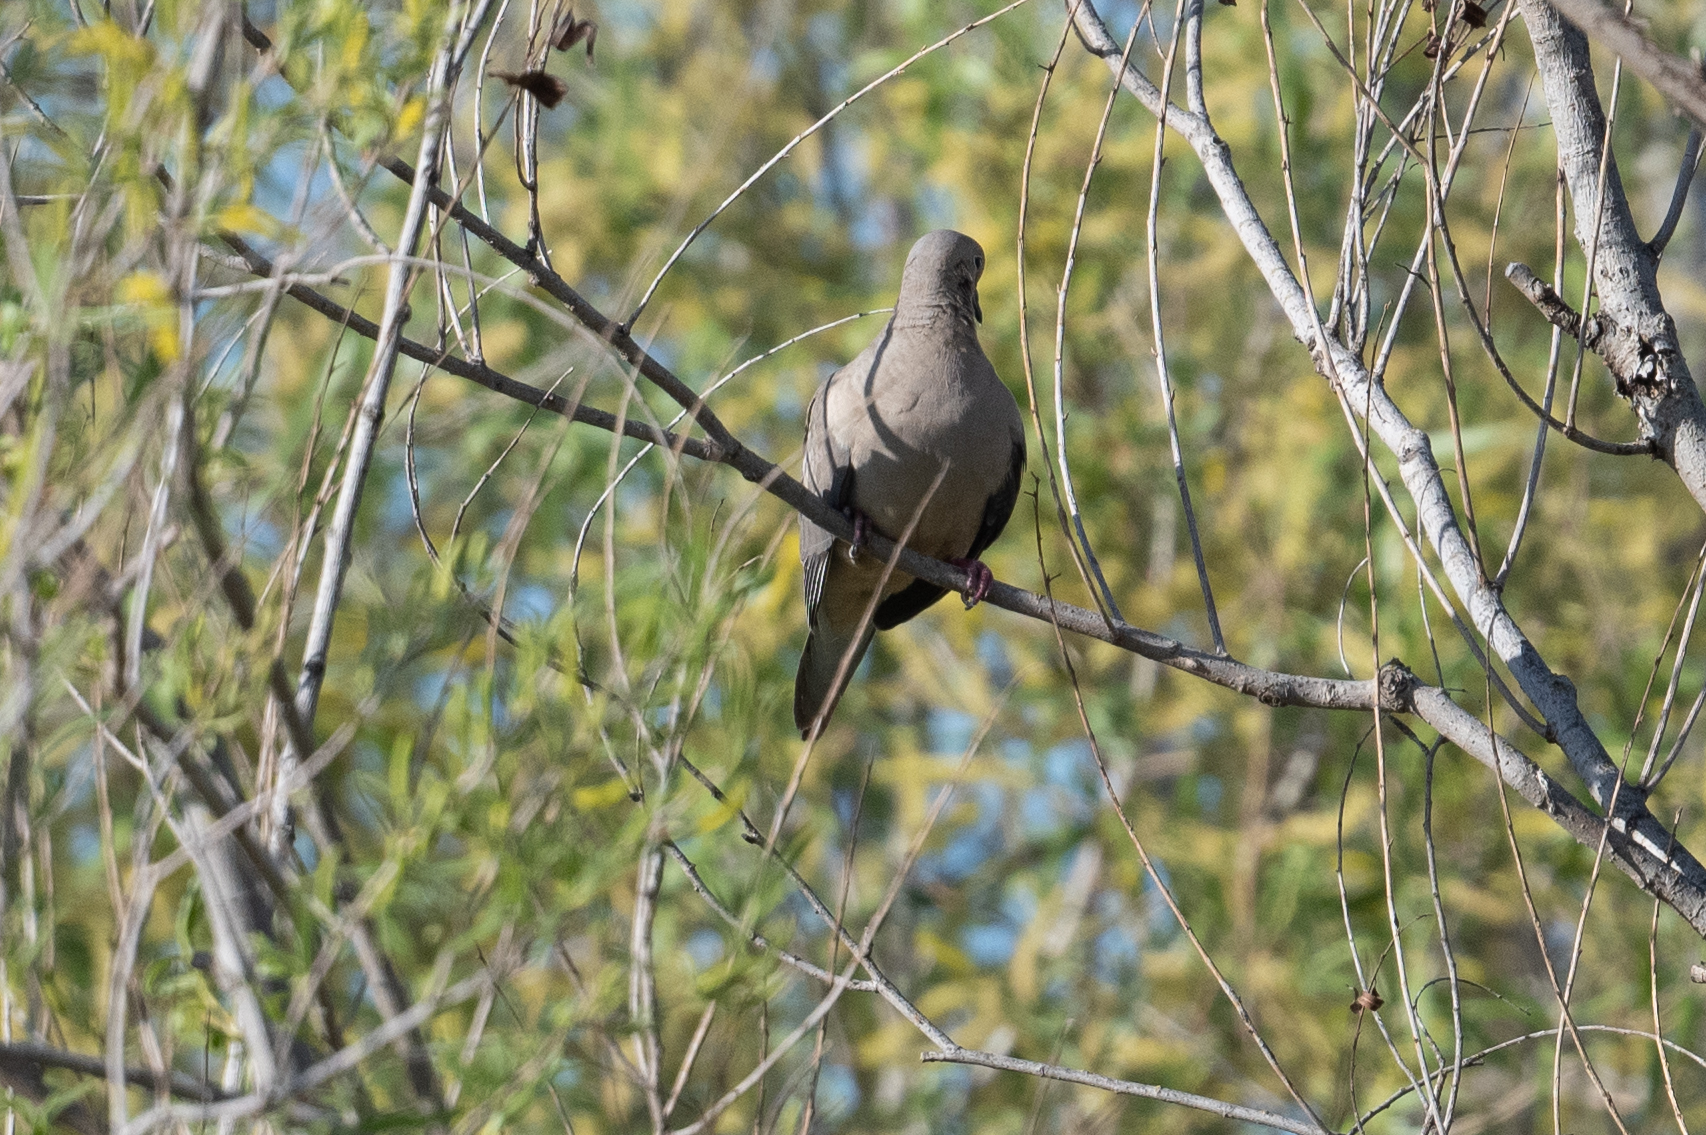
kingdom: Animalia
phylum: Chordata
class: Aves
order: Columbiformes
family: Columbidae
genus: Zenaida
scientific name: Zenaida macroura
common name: Mourning dove
